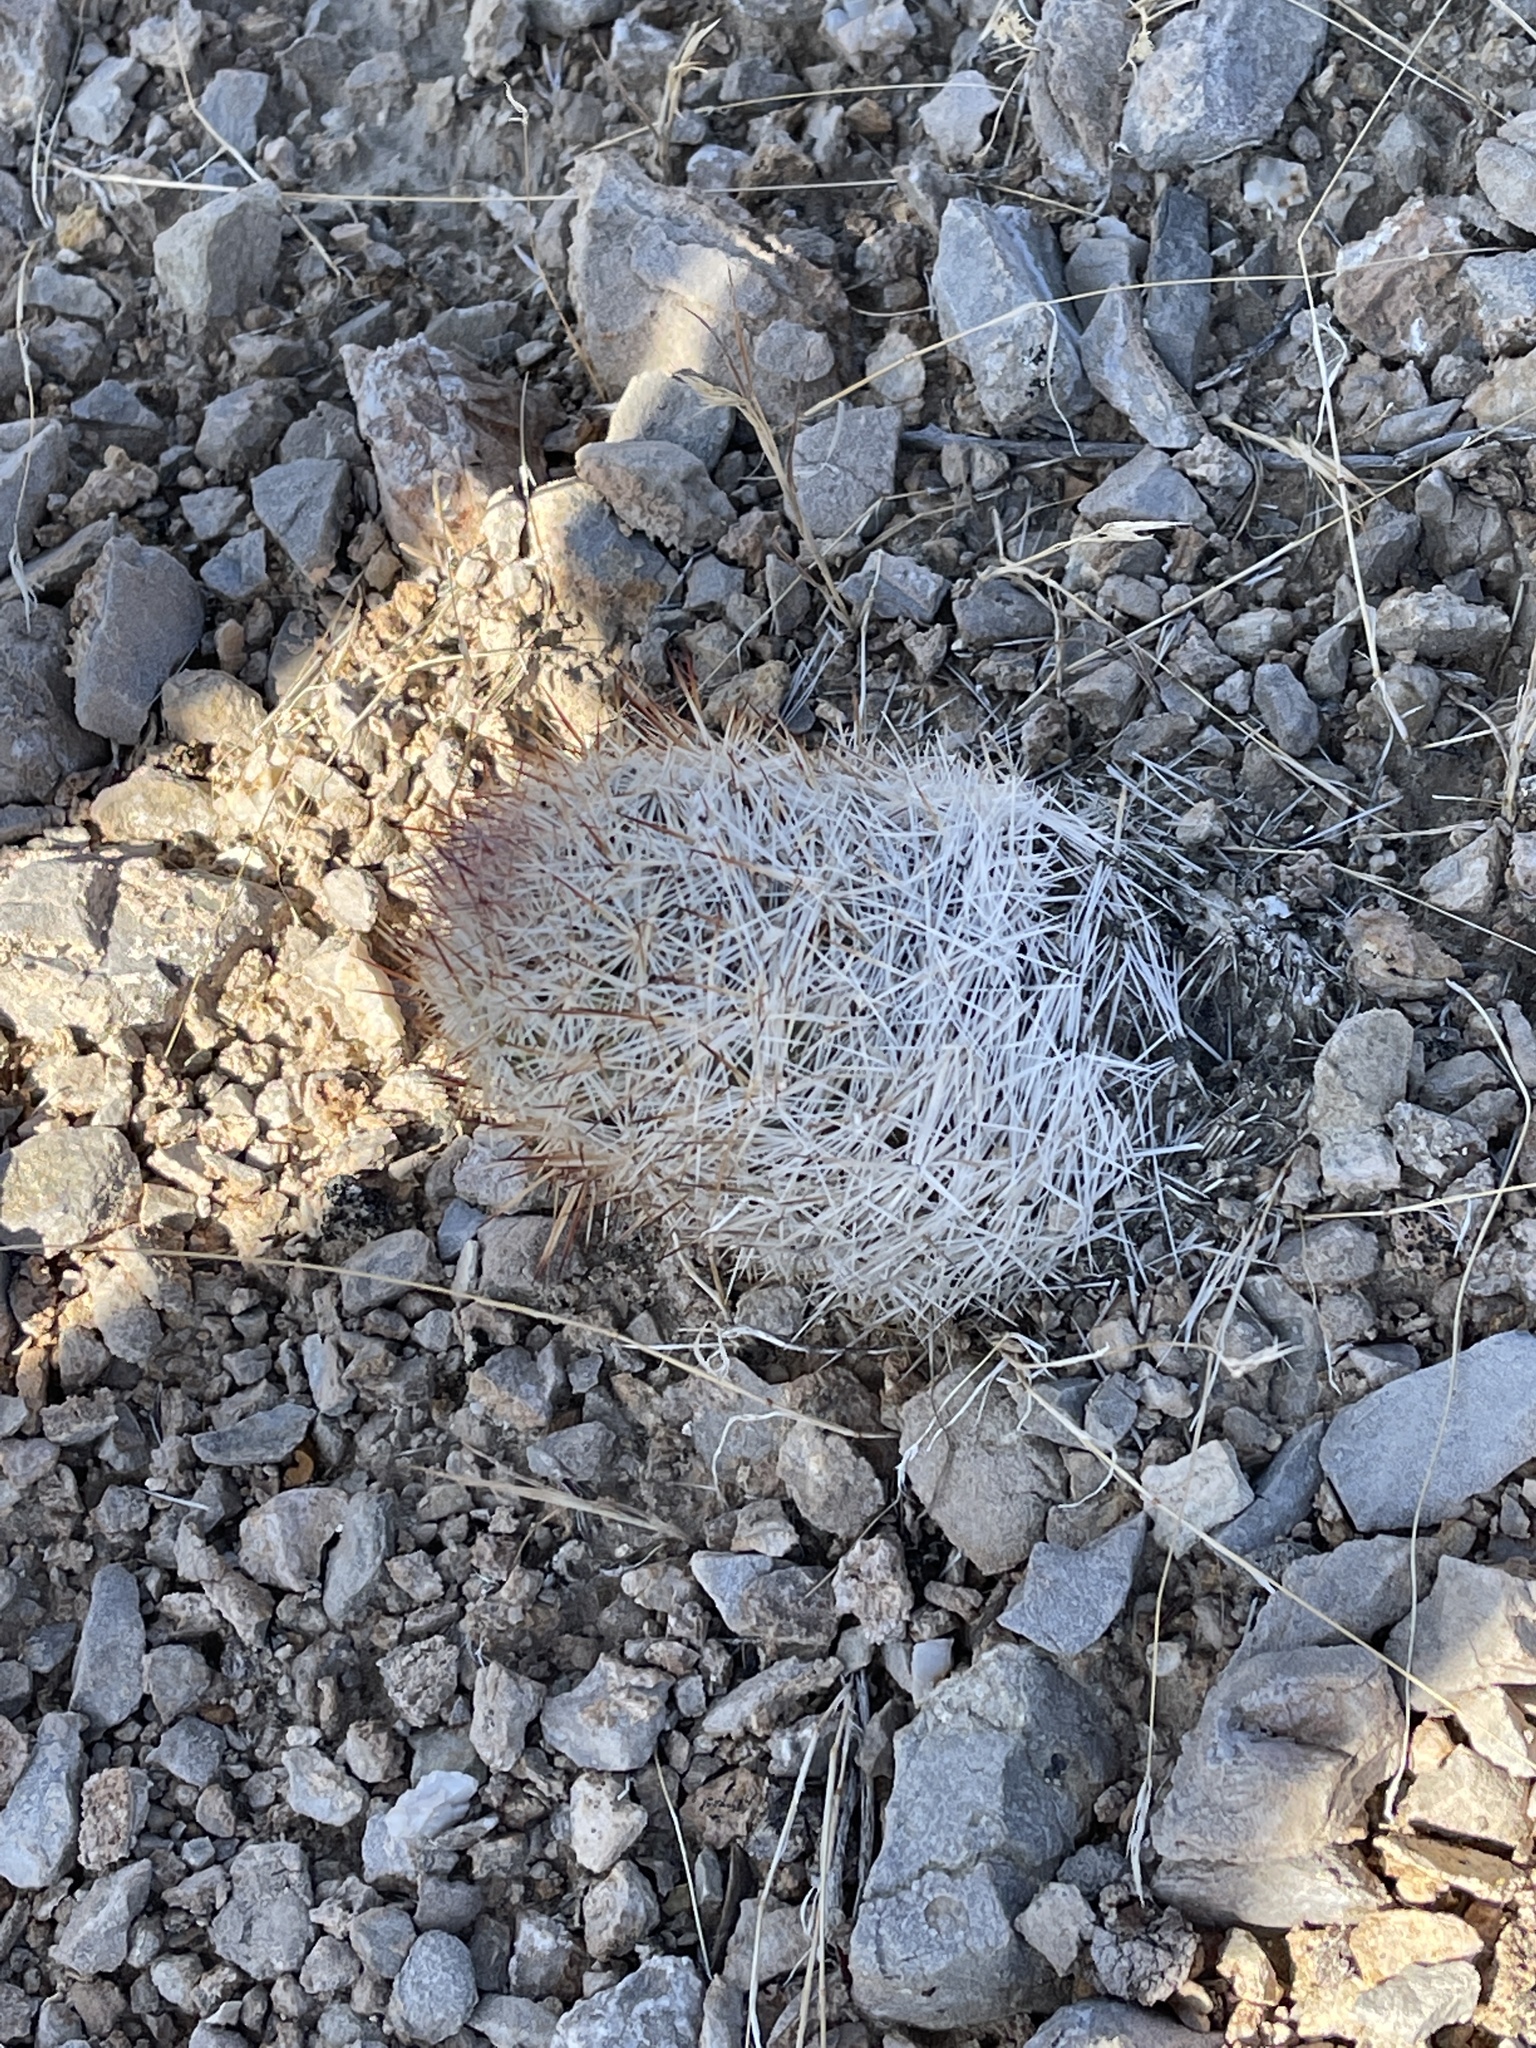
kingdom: Plantae
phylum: Tracheophyta
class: Magnoliopsida
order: Caryophyllales
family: Cactaceae
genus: Pelecyphora
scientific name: Pelecyphora dasyacantha
